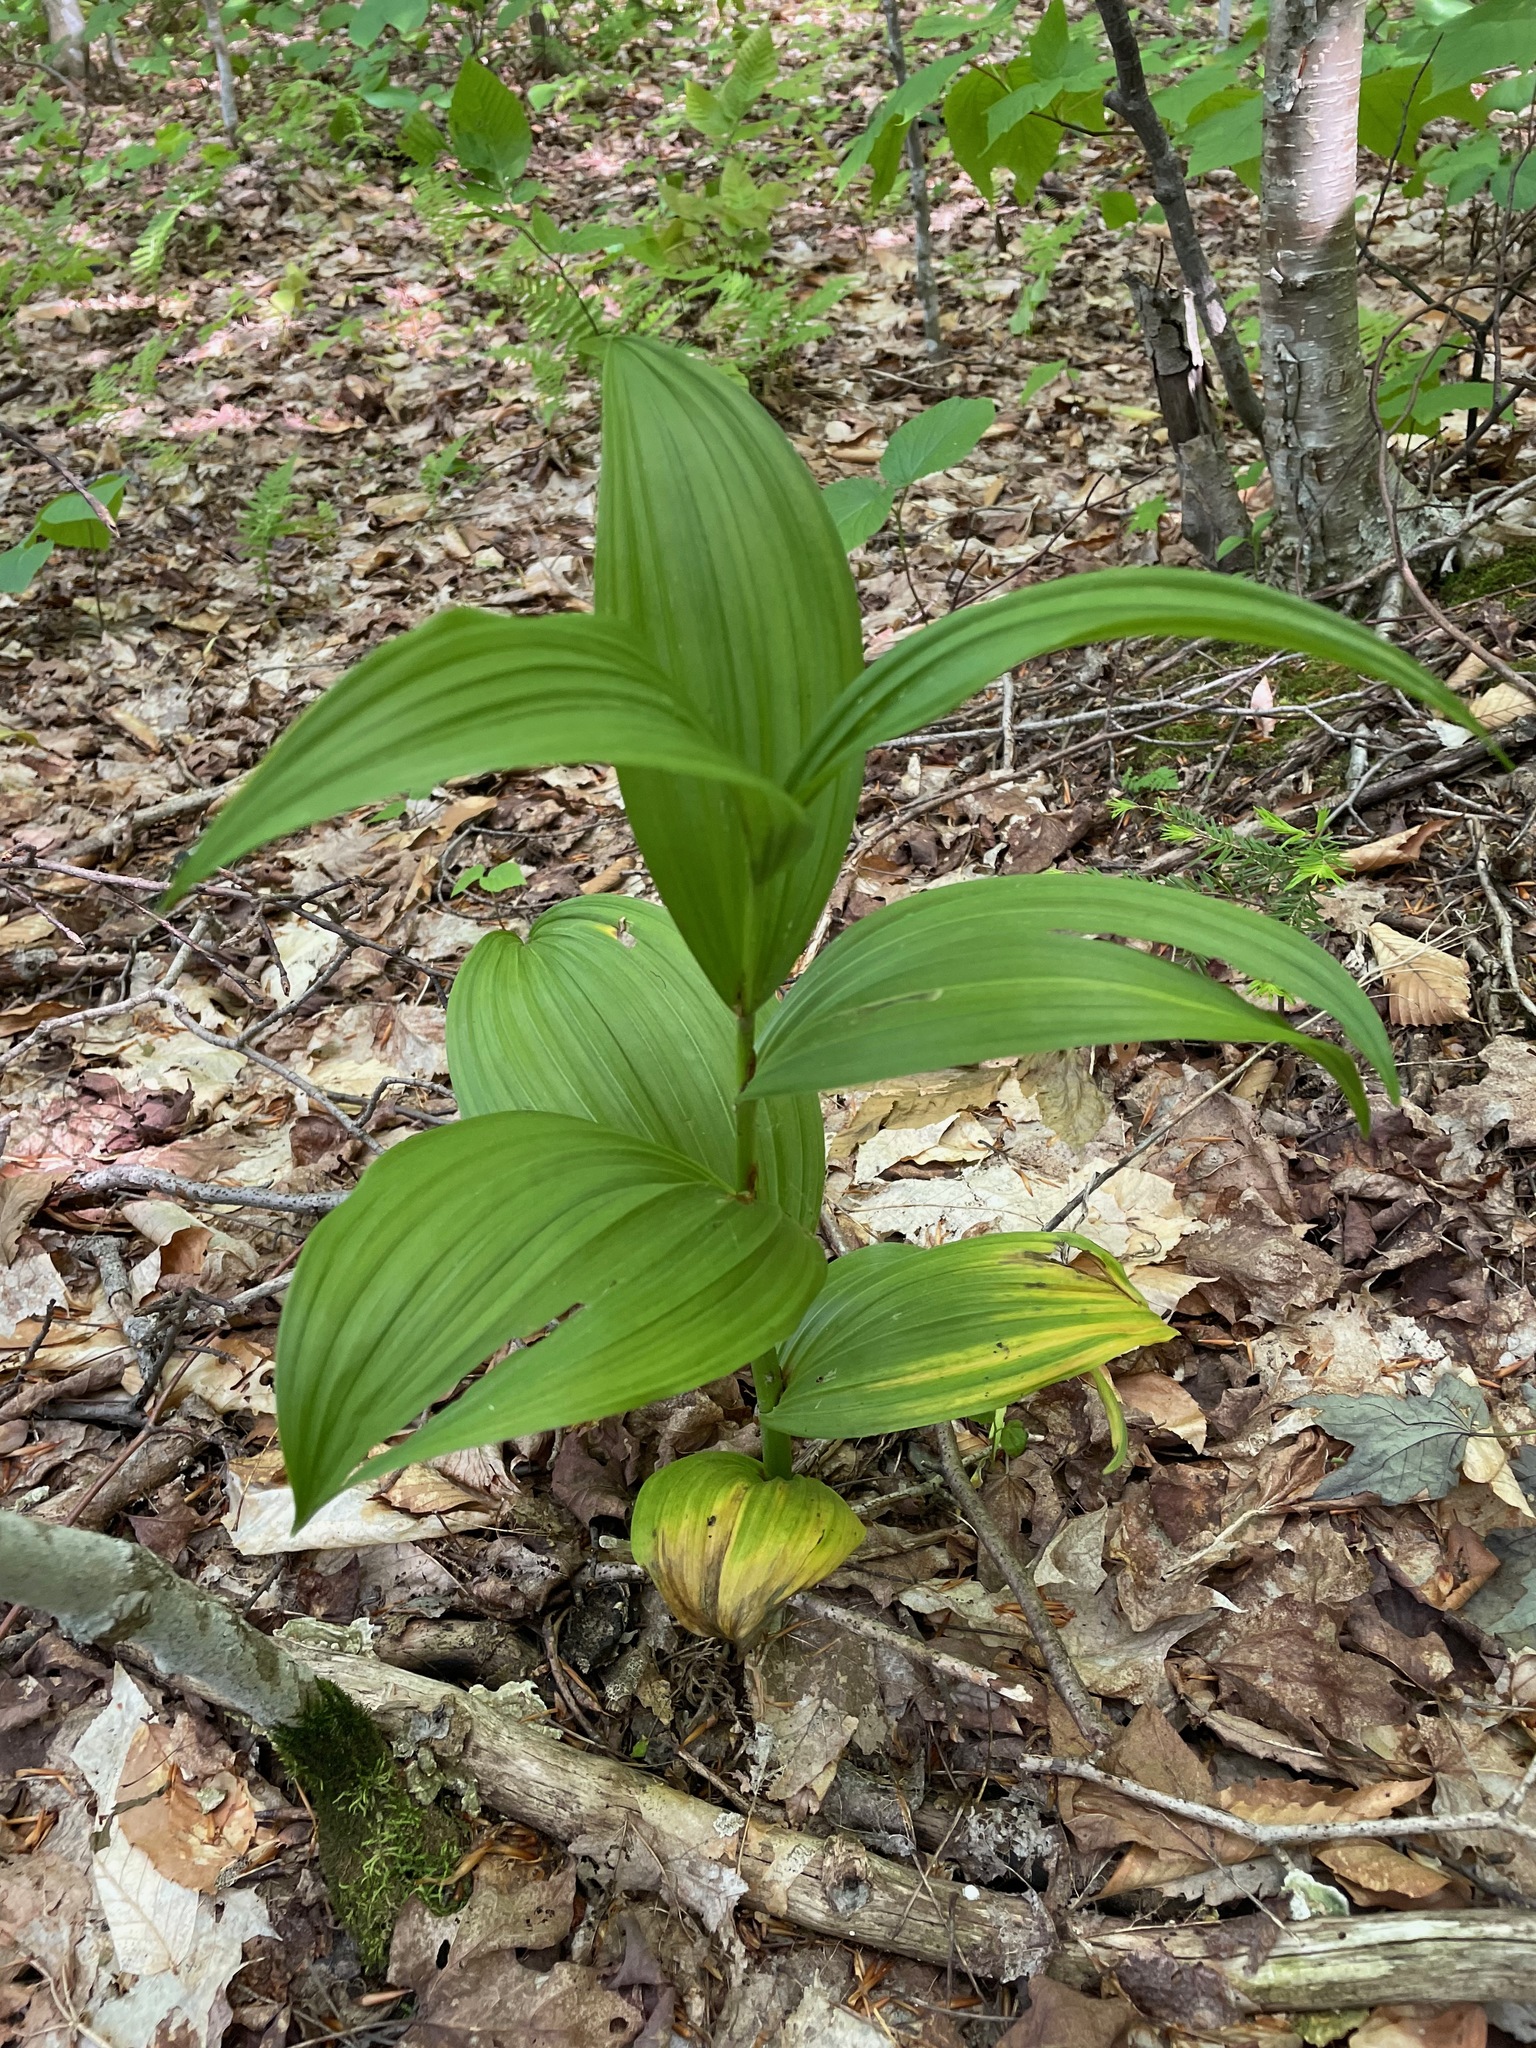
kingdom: Plantae
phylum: Tracheophyta
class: Liliopsida
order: Liliales
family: Melanthiaceae
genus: Veratrum
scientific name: Veratrum viride
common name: American false hellebore
